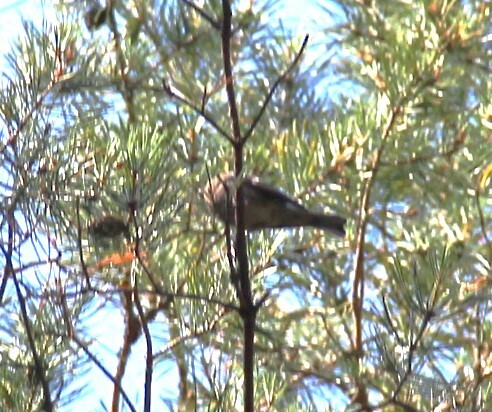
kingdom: Animalia
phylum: Chordata
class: Aves
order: Passeriformes
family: Fringillidae
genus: Fringilla
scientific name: Fringilla coelebs
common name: Common chaffinch
